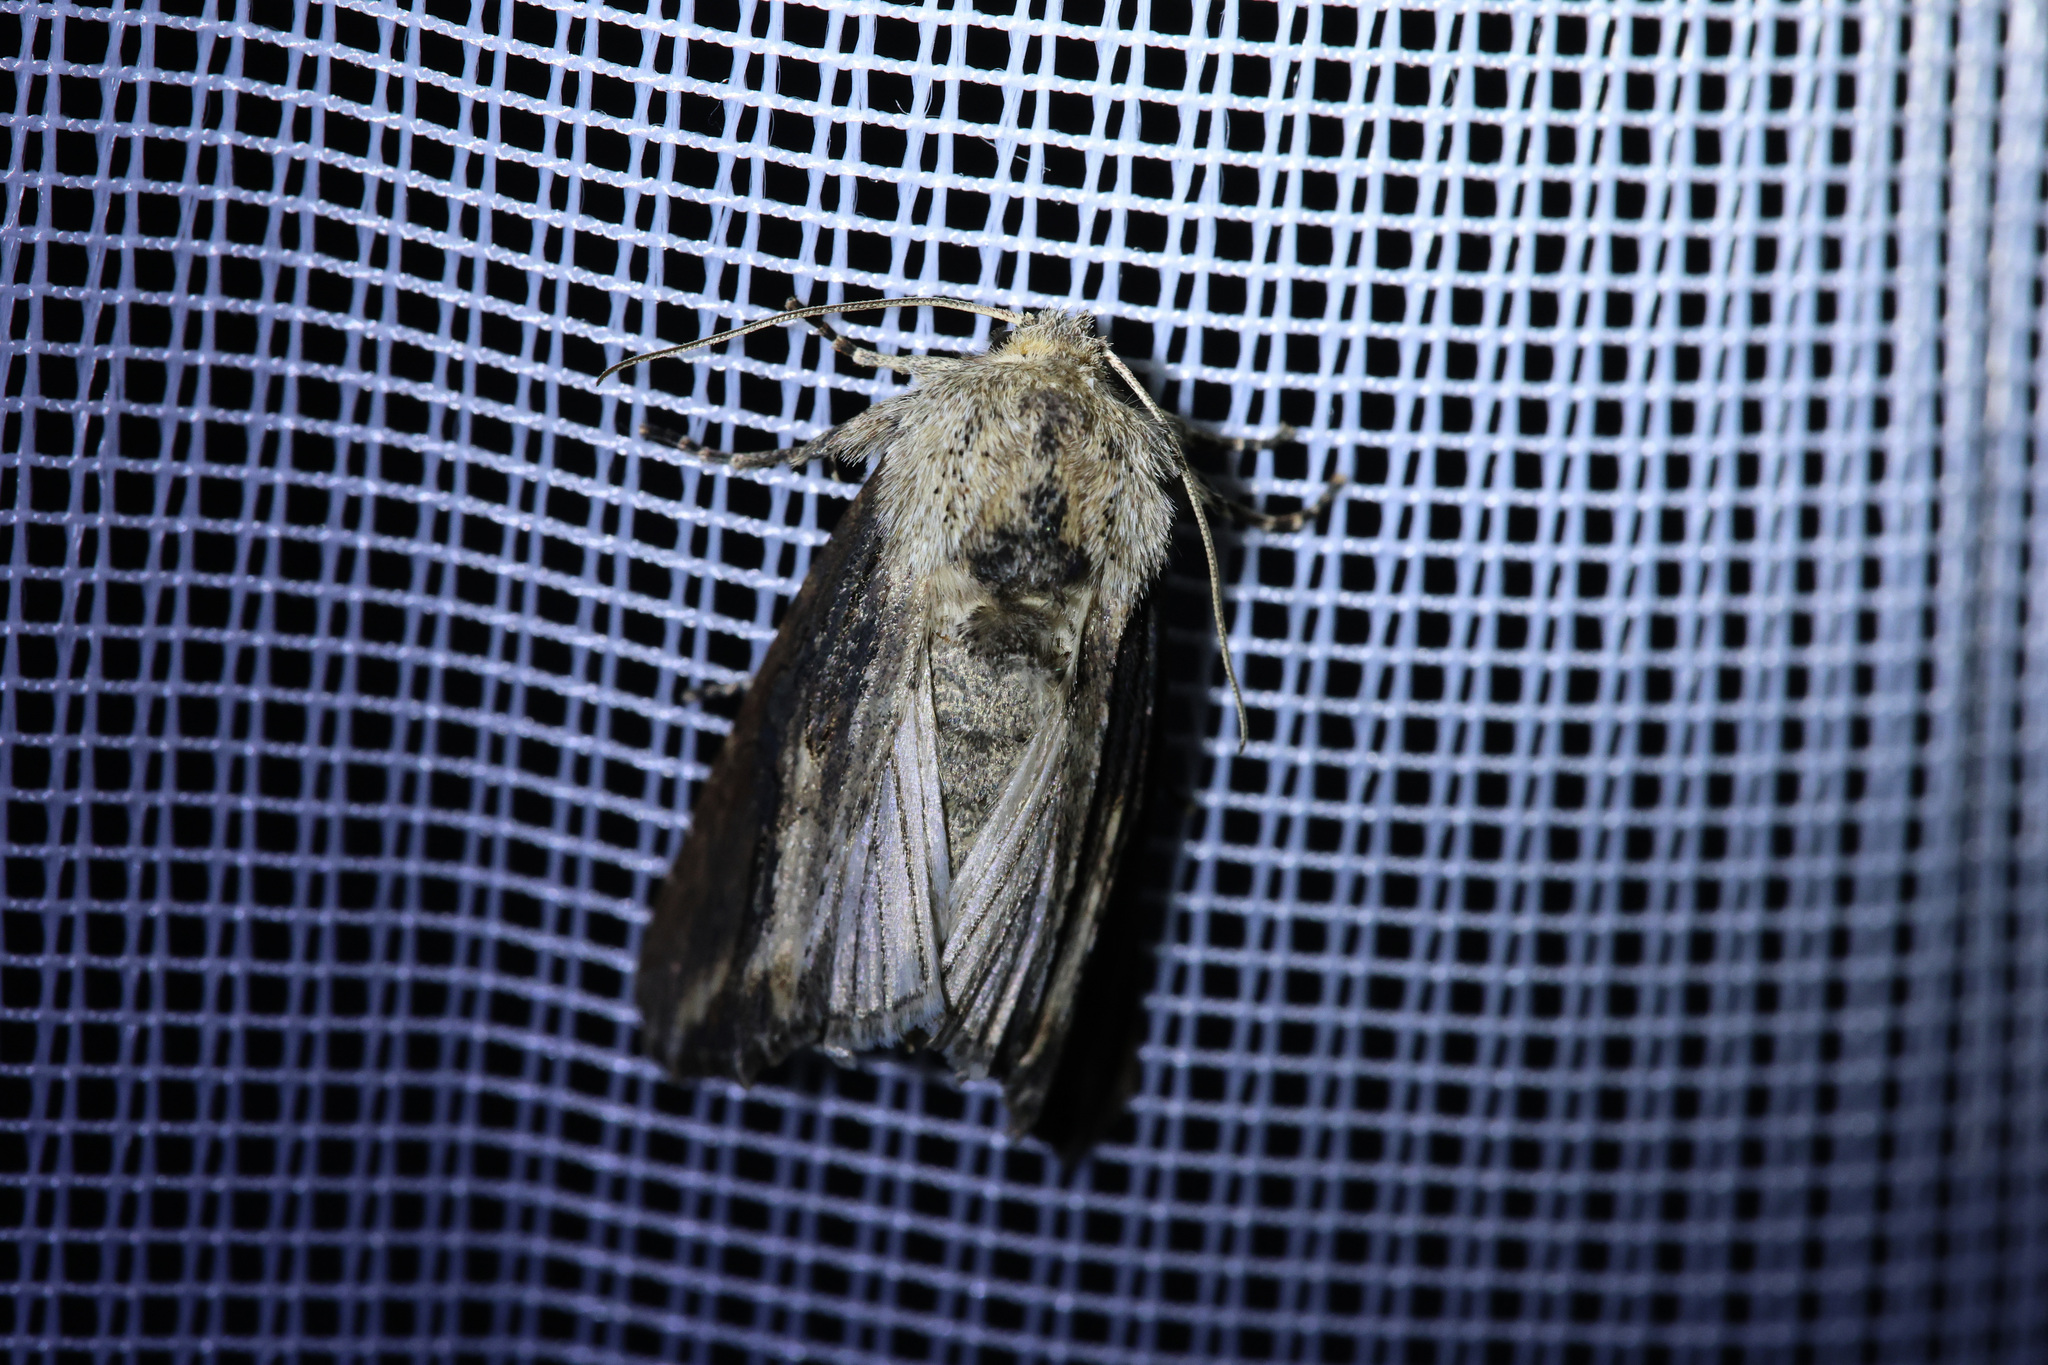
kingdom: Animalia
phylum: Arthropoda
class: Insecta
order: Lepidoptera
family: Noctuidae
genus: Egira
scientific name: Egira conspicillaris
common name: Silver cloud
